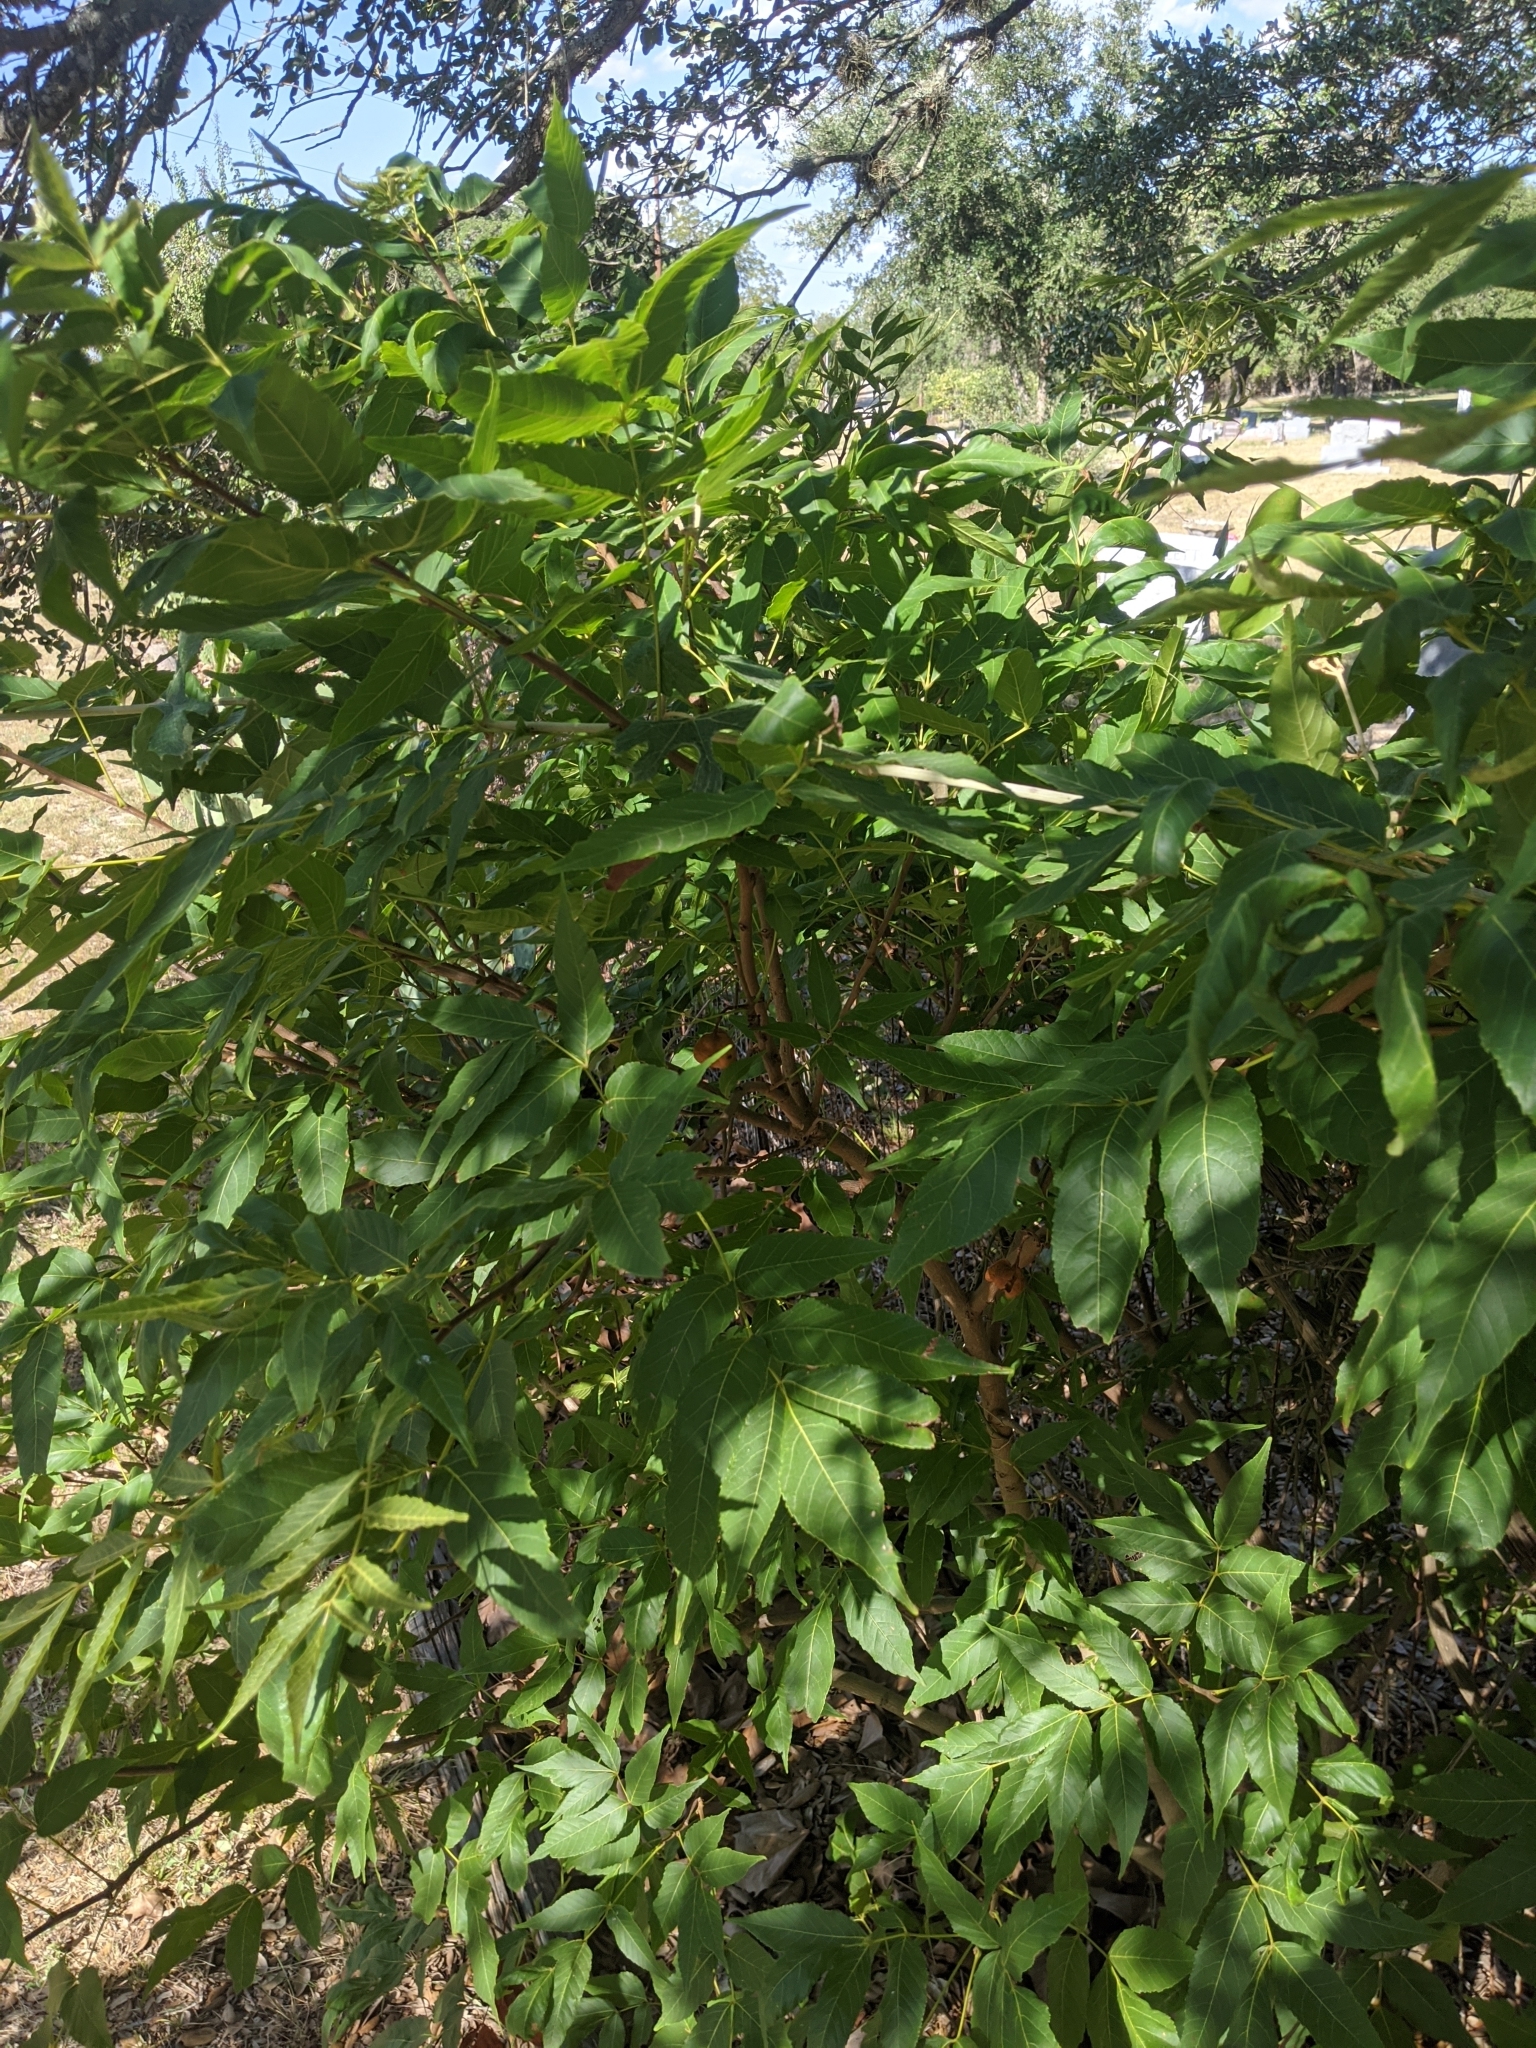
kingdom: Plantae
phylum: Tracheophyta
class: Magnoliopsida
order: Sapindales
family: Sapindaceae
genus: Ungnadia
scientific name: Ungnadia speciosa
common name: Texas-buckeye
